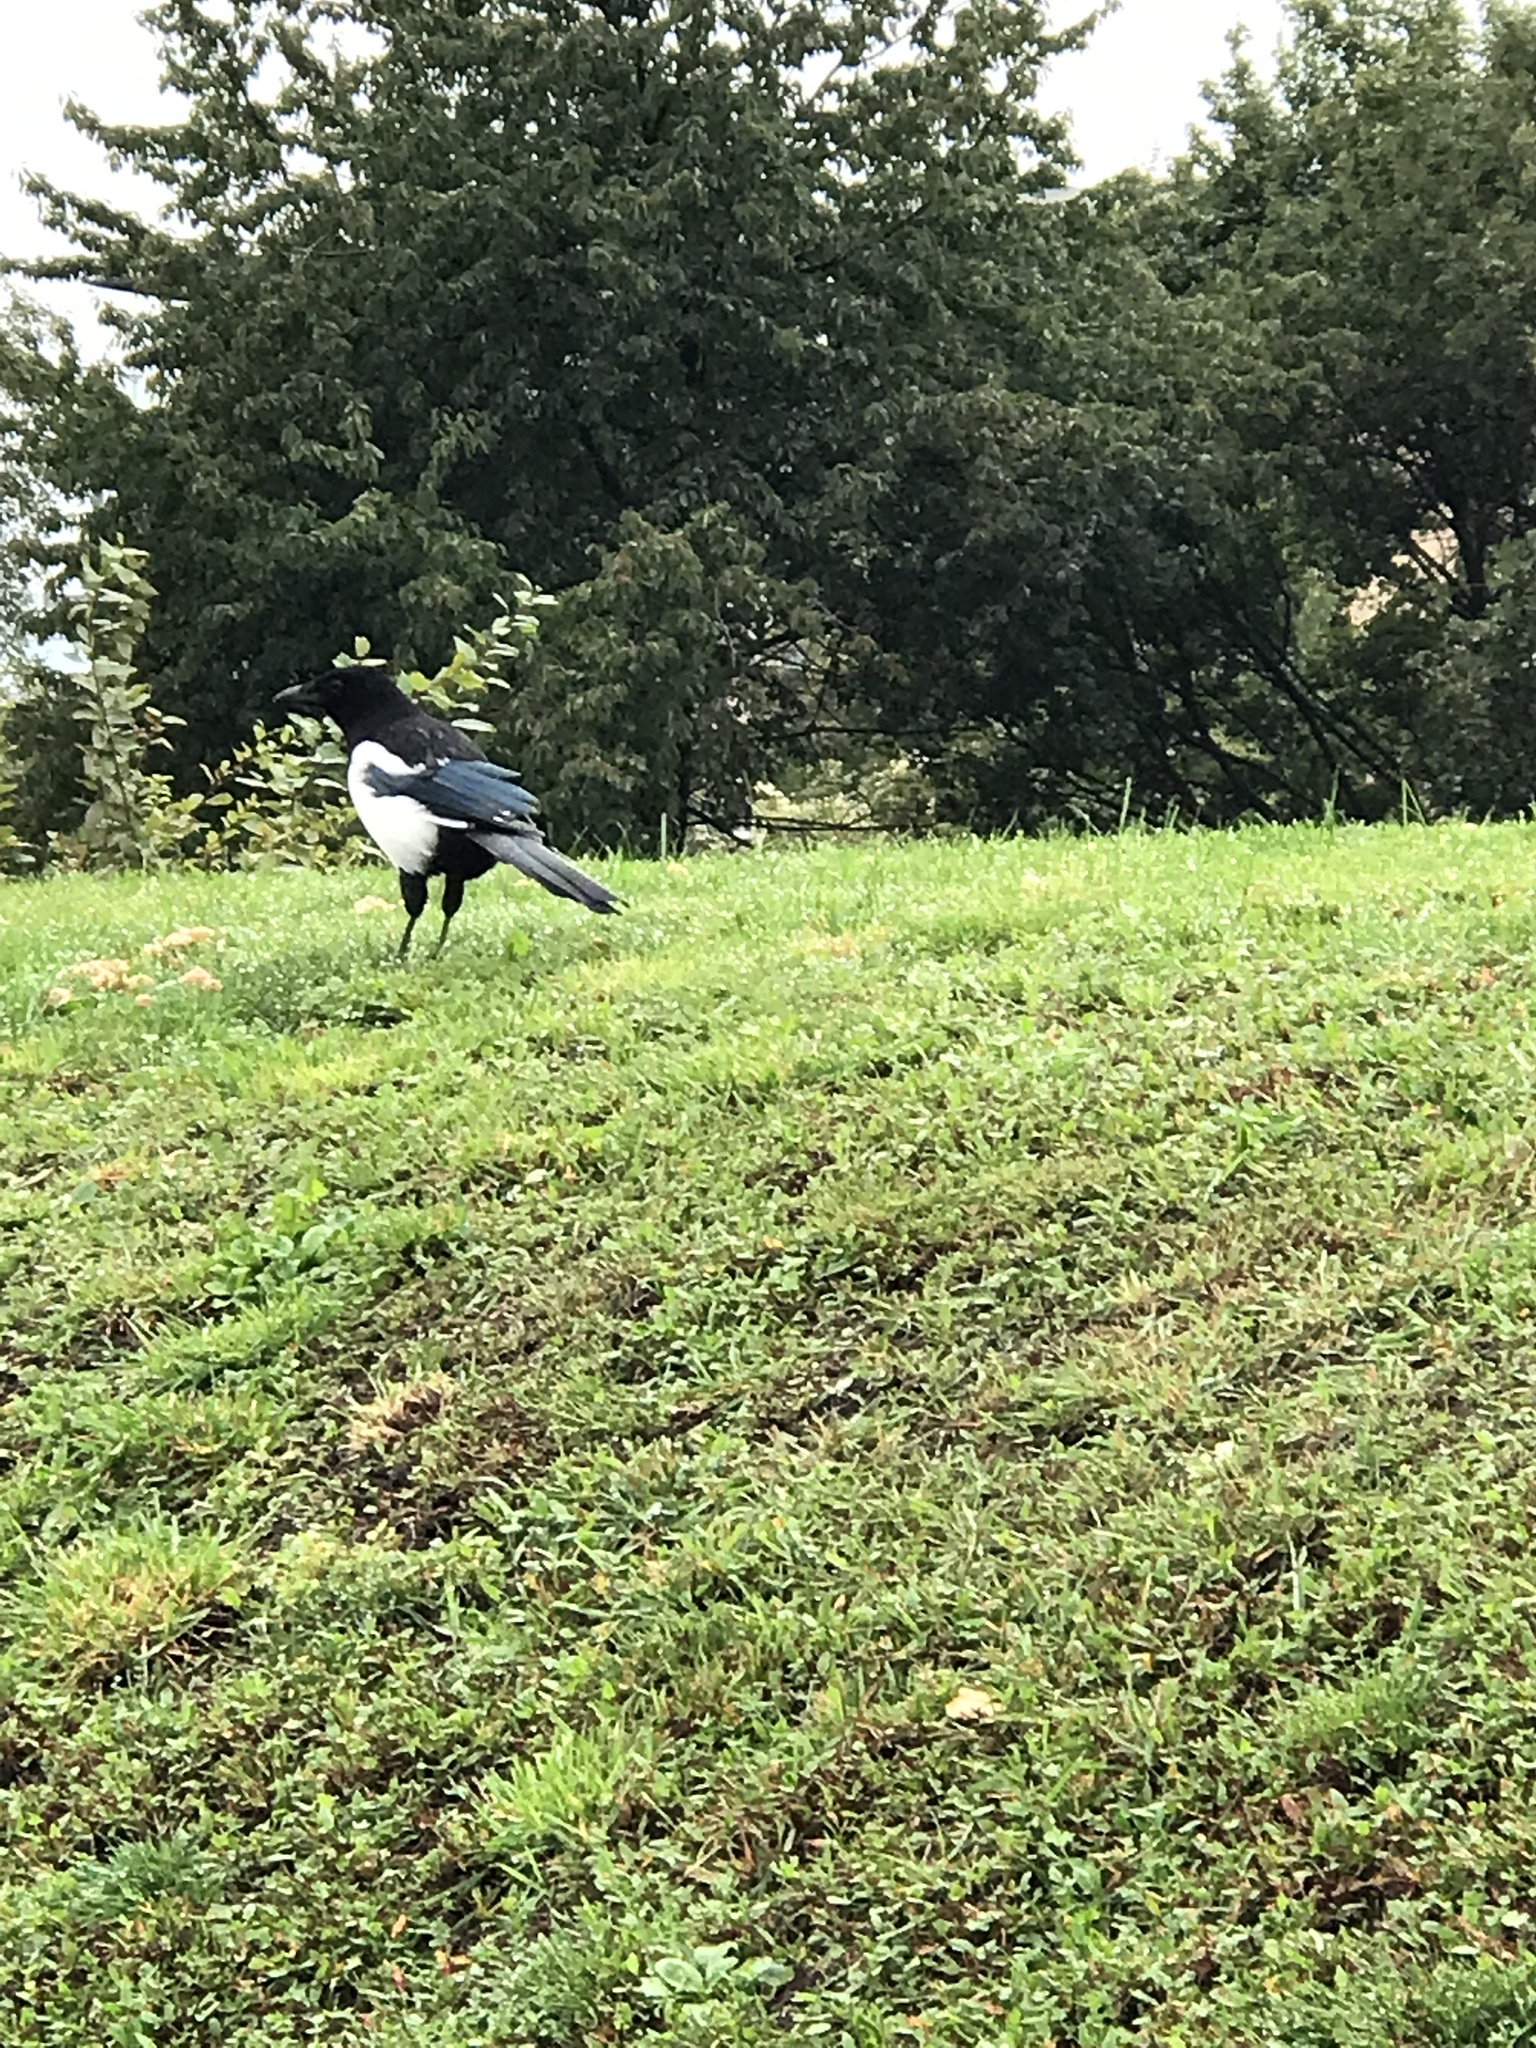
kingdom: Animalia
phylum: Chordata
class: Aves
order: Passeriformes
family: Corvidae
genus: Pica
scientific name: Pica pica
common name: Eurasian magpie
